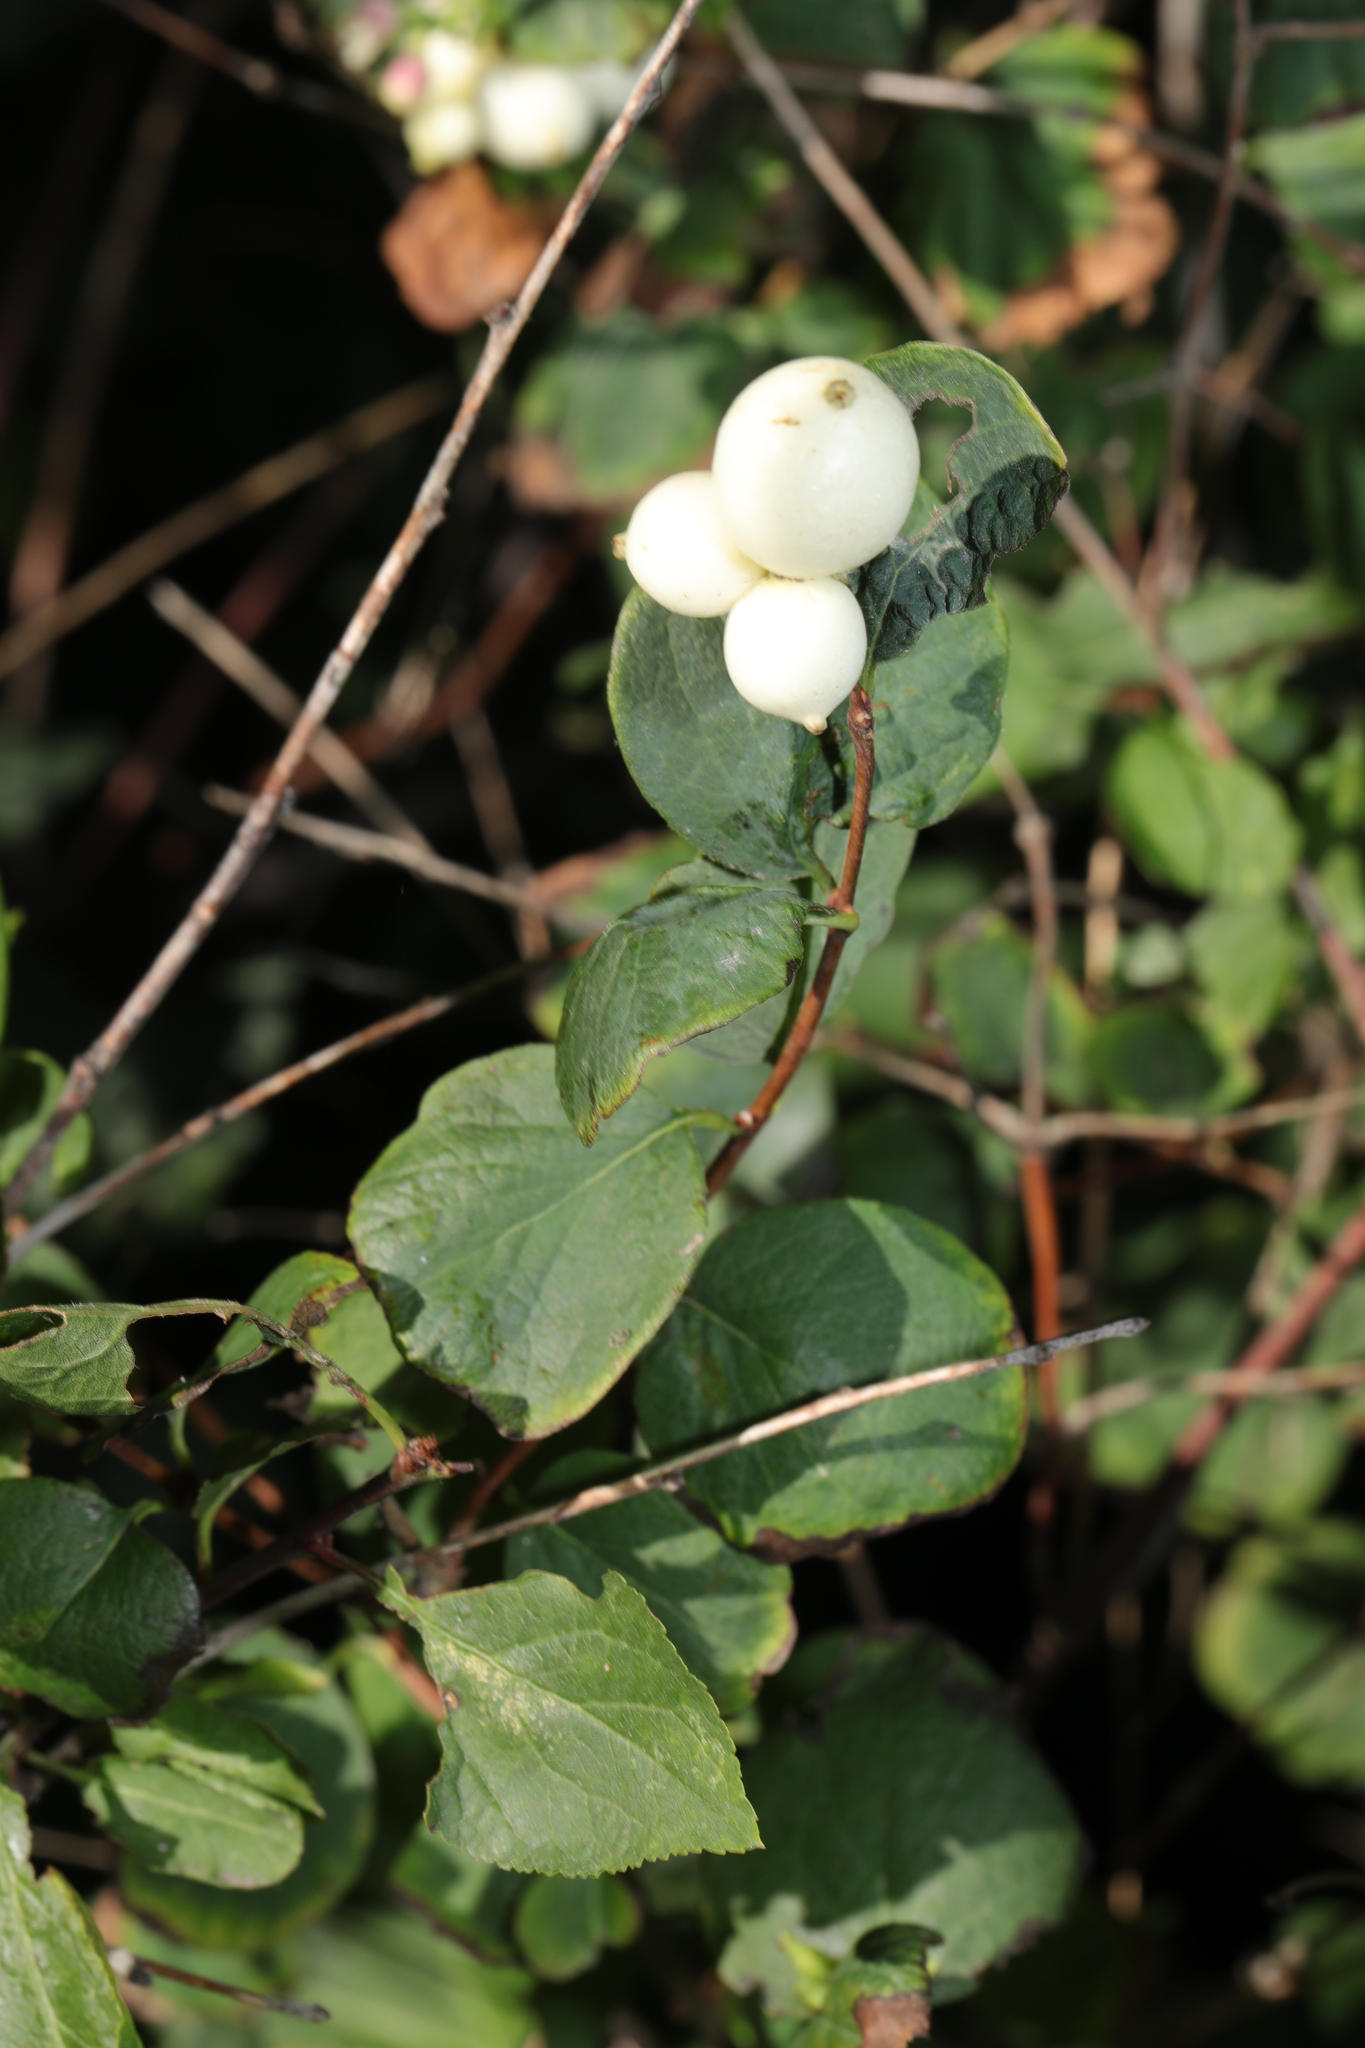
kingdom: Plantae
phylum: Tracheophyta
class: Magnoliopsida
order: Dipsacales
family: Caprifoliaceae
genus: Symphoricarpos
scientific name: Symphoricarpos albus
